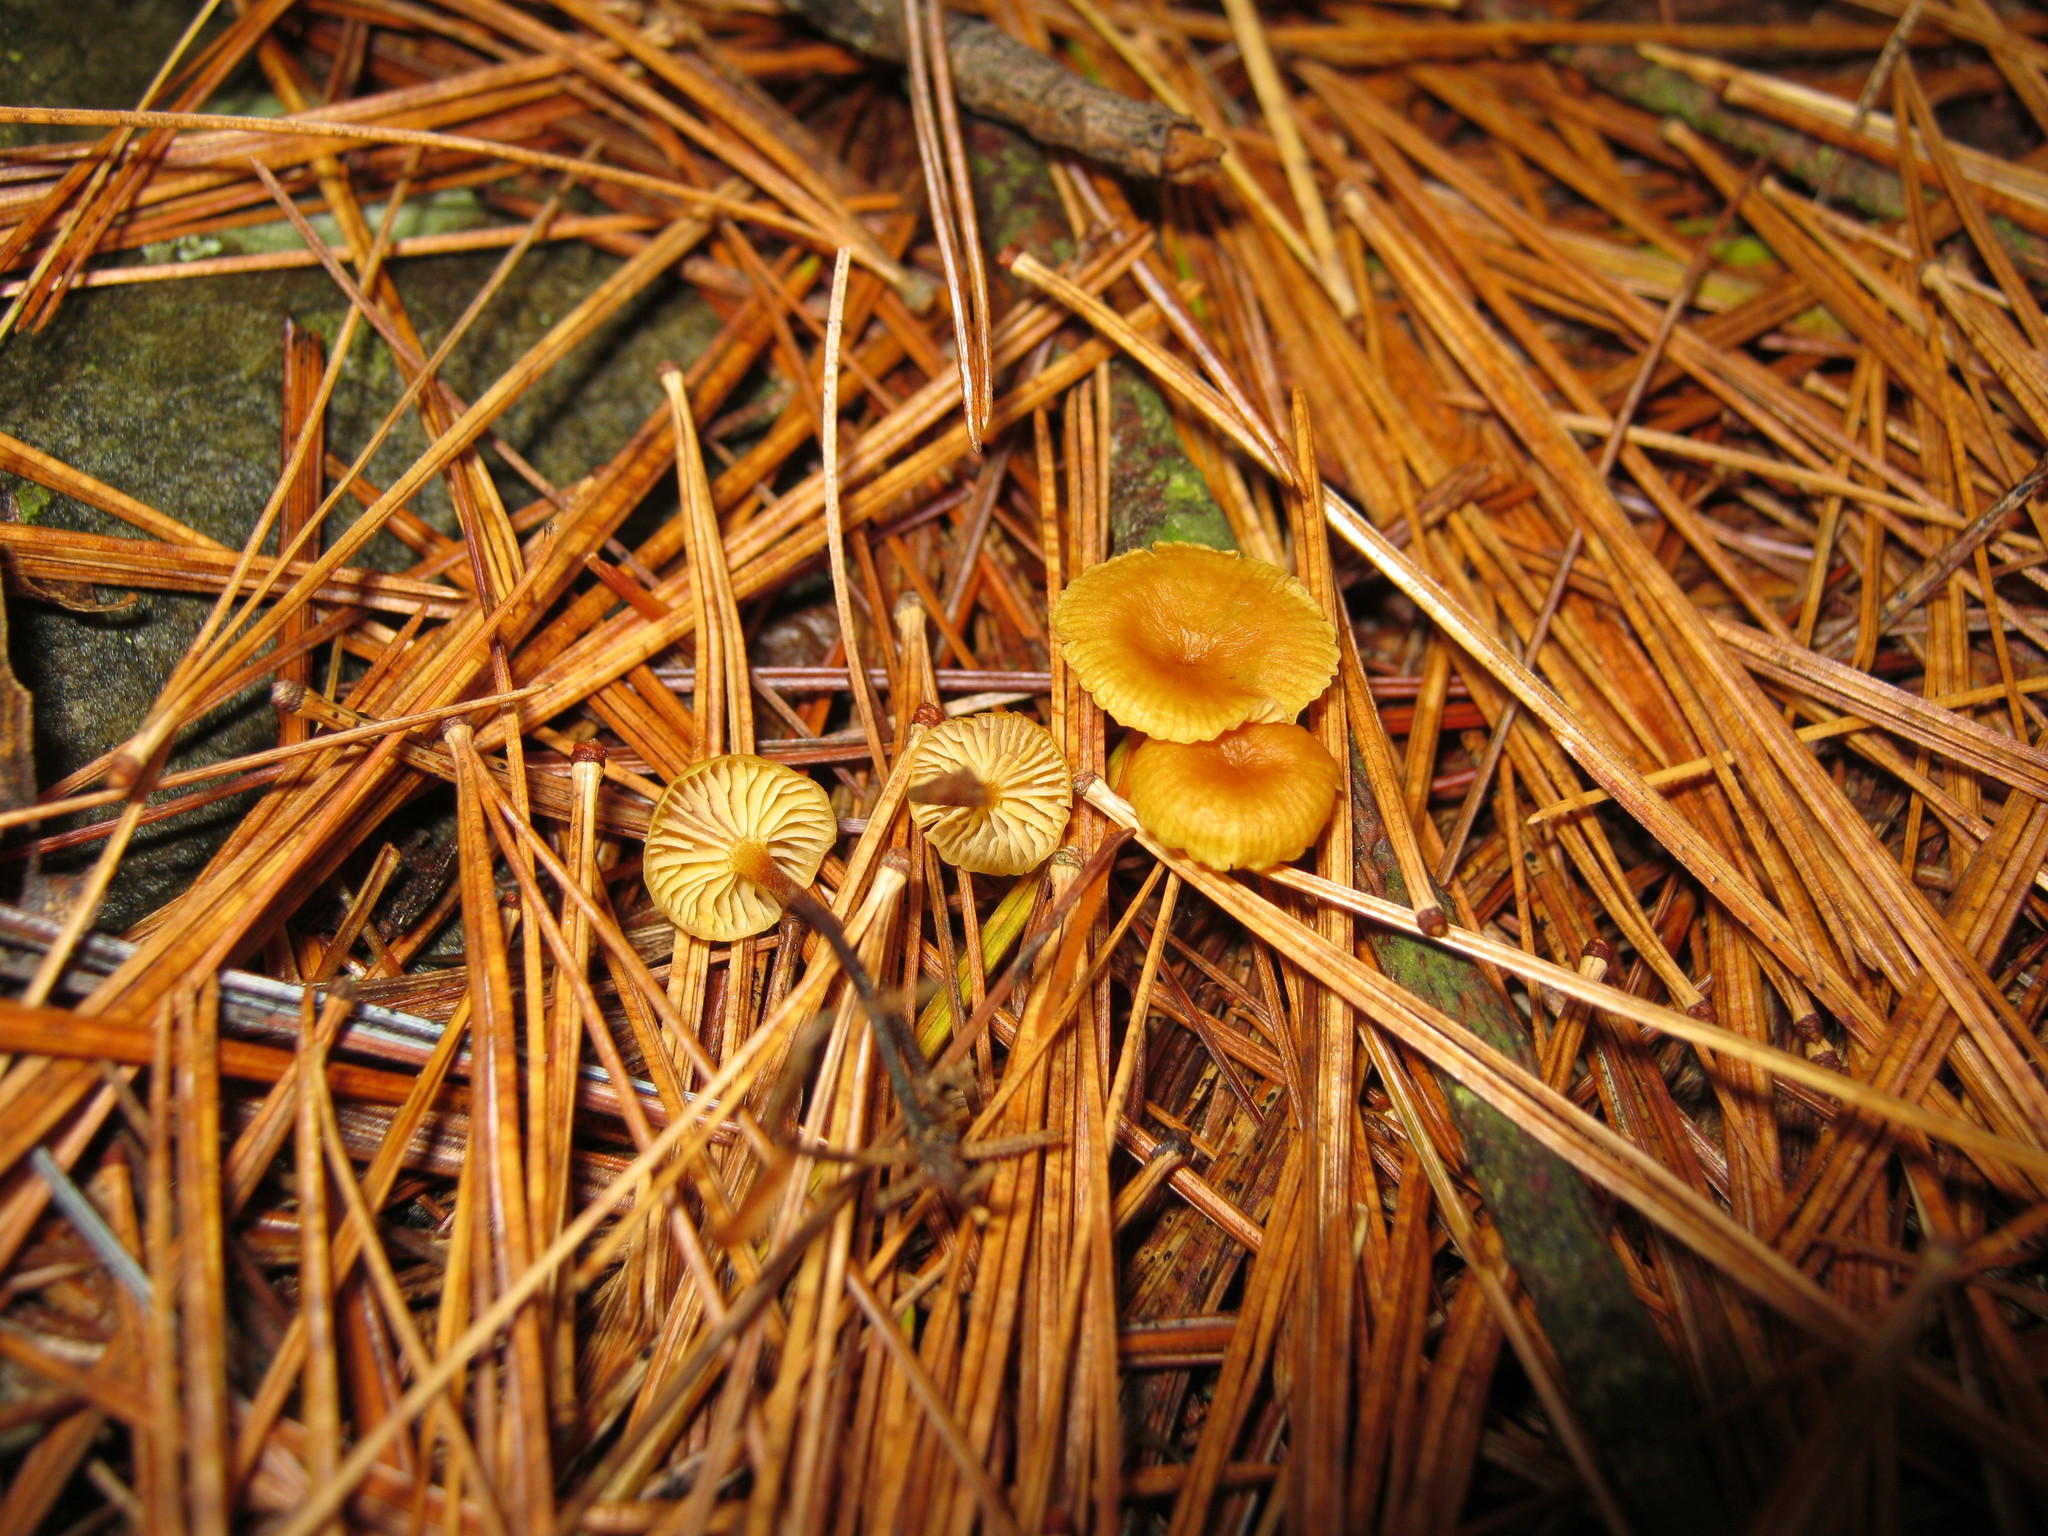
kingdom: Fungi
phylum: Basidiomycota
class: Agaricomycetes
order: Agaricales
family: Mycenaceae
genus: Xeromphalina
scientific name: Xeromphalina cauticinalis
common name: Pinelitter gingertail
